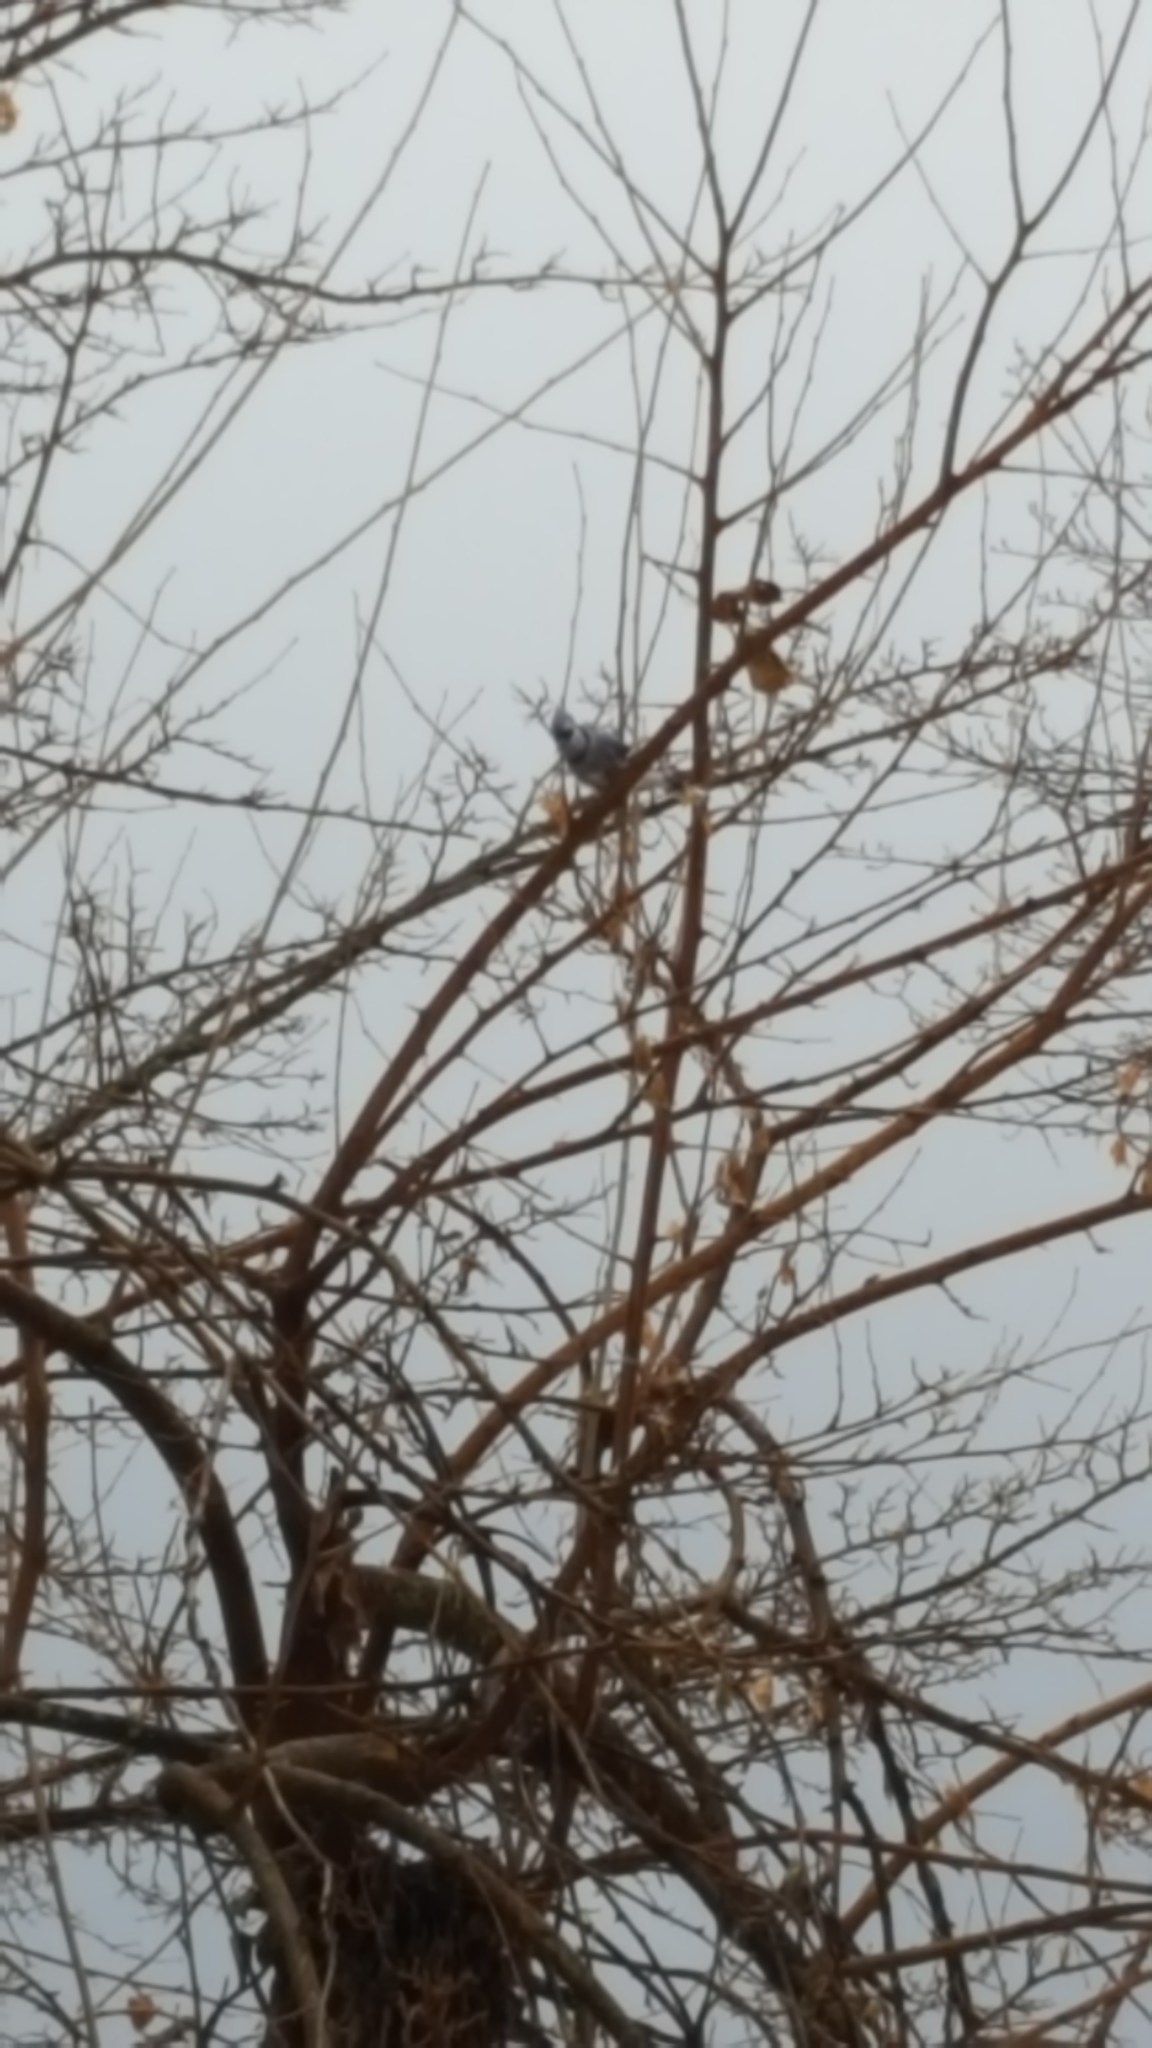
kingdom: Animalia
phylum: Chordata
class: Aves
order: Passeriformes
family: Corvidae
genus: Cyanocitta
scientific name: Cyanocitta cristata
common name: Blue jay
